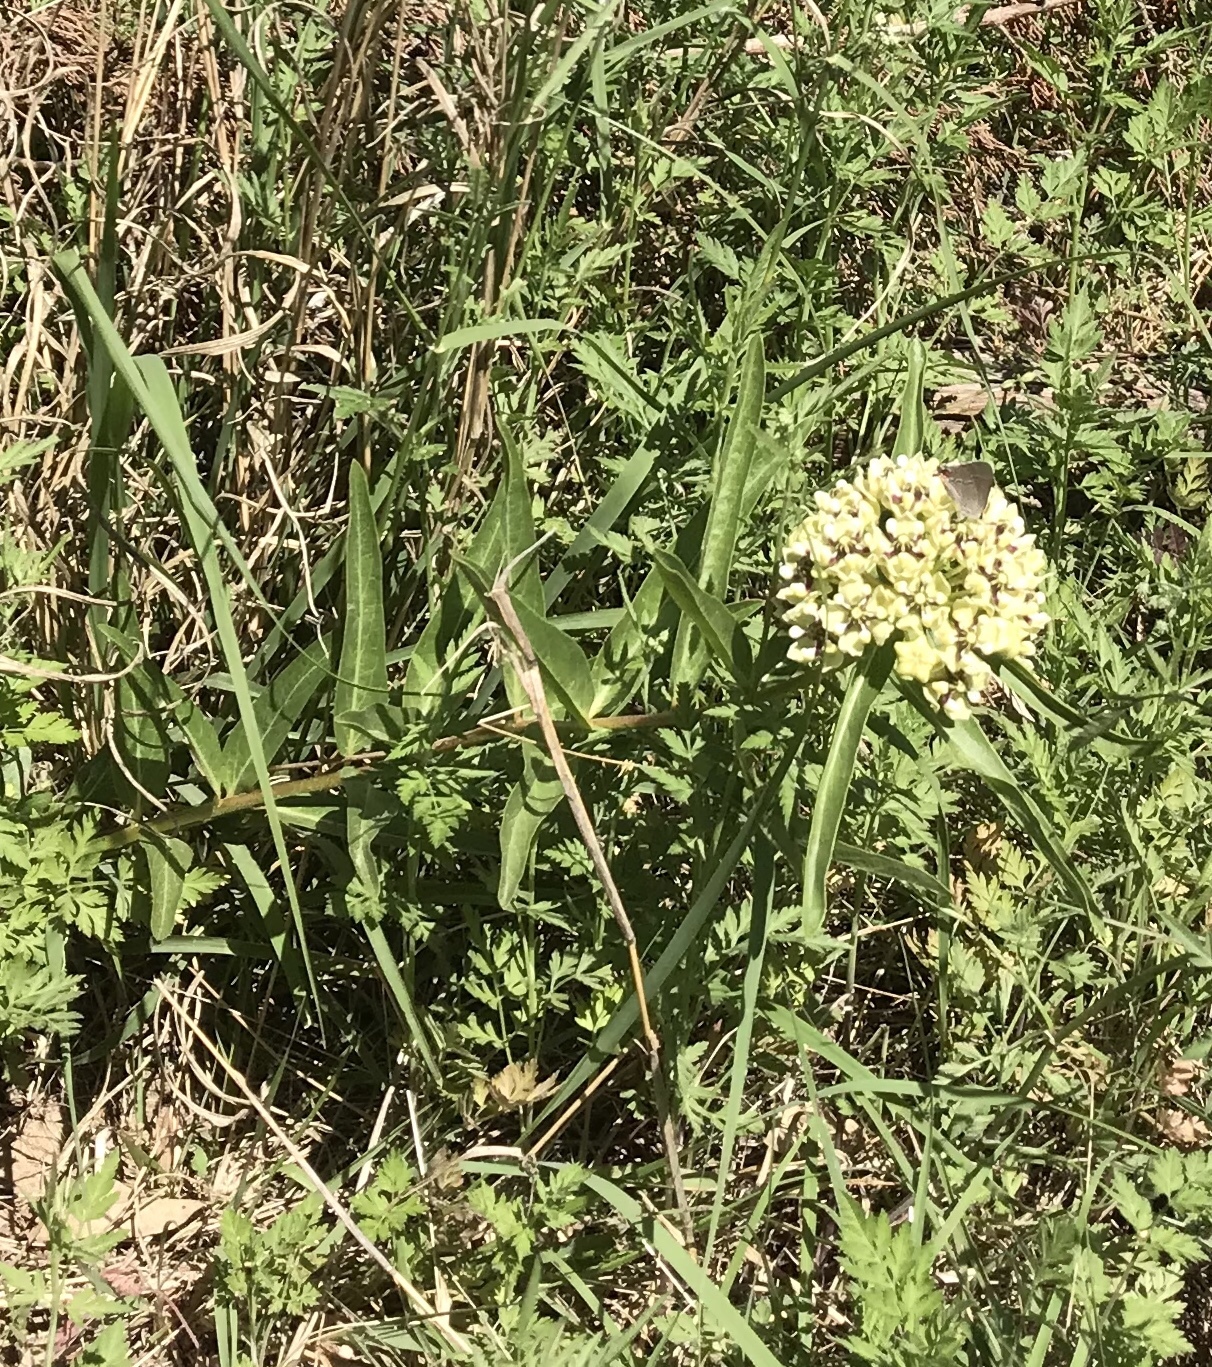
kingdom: Plantae
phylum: Tracheophyta
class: Magnoliopsida
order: Gentianales
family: Apocynaceae
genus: Asclepias
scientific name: Asclepias asperula
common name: Antelope horns
